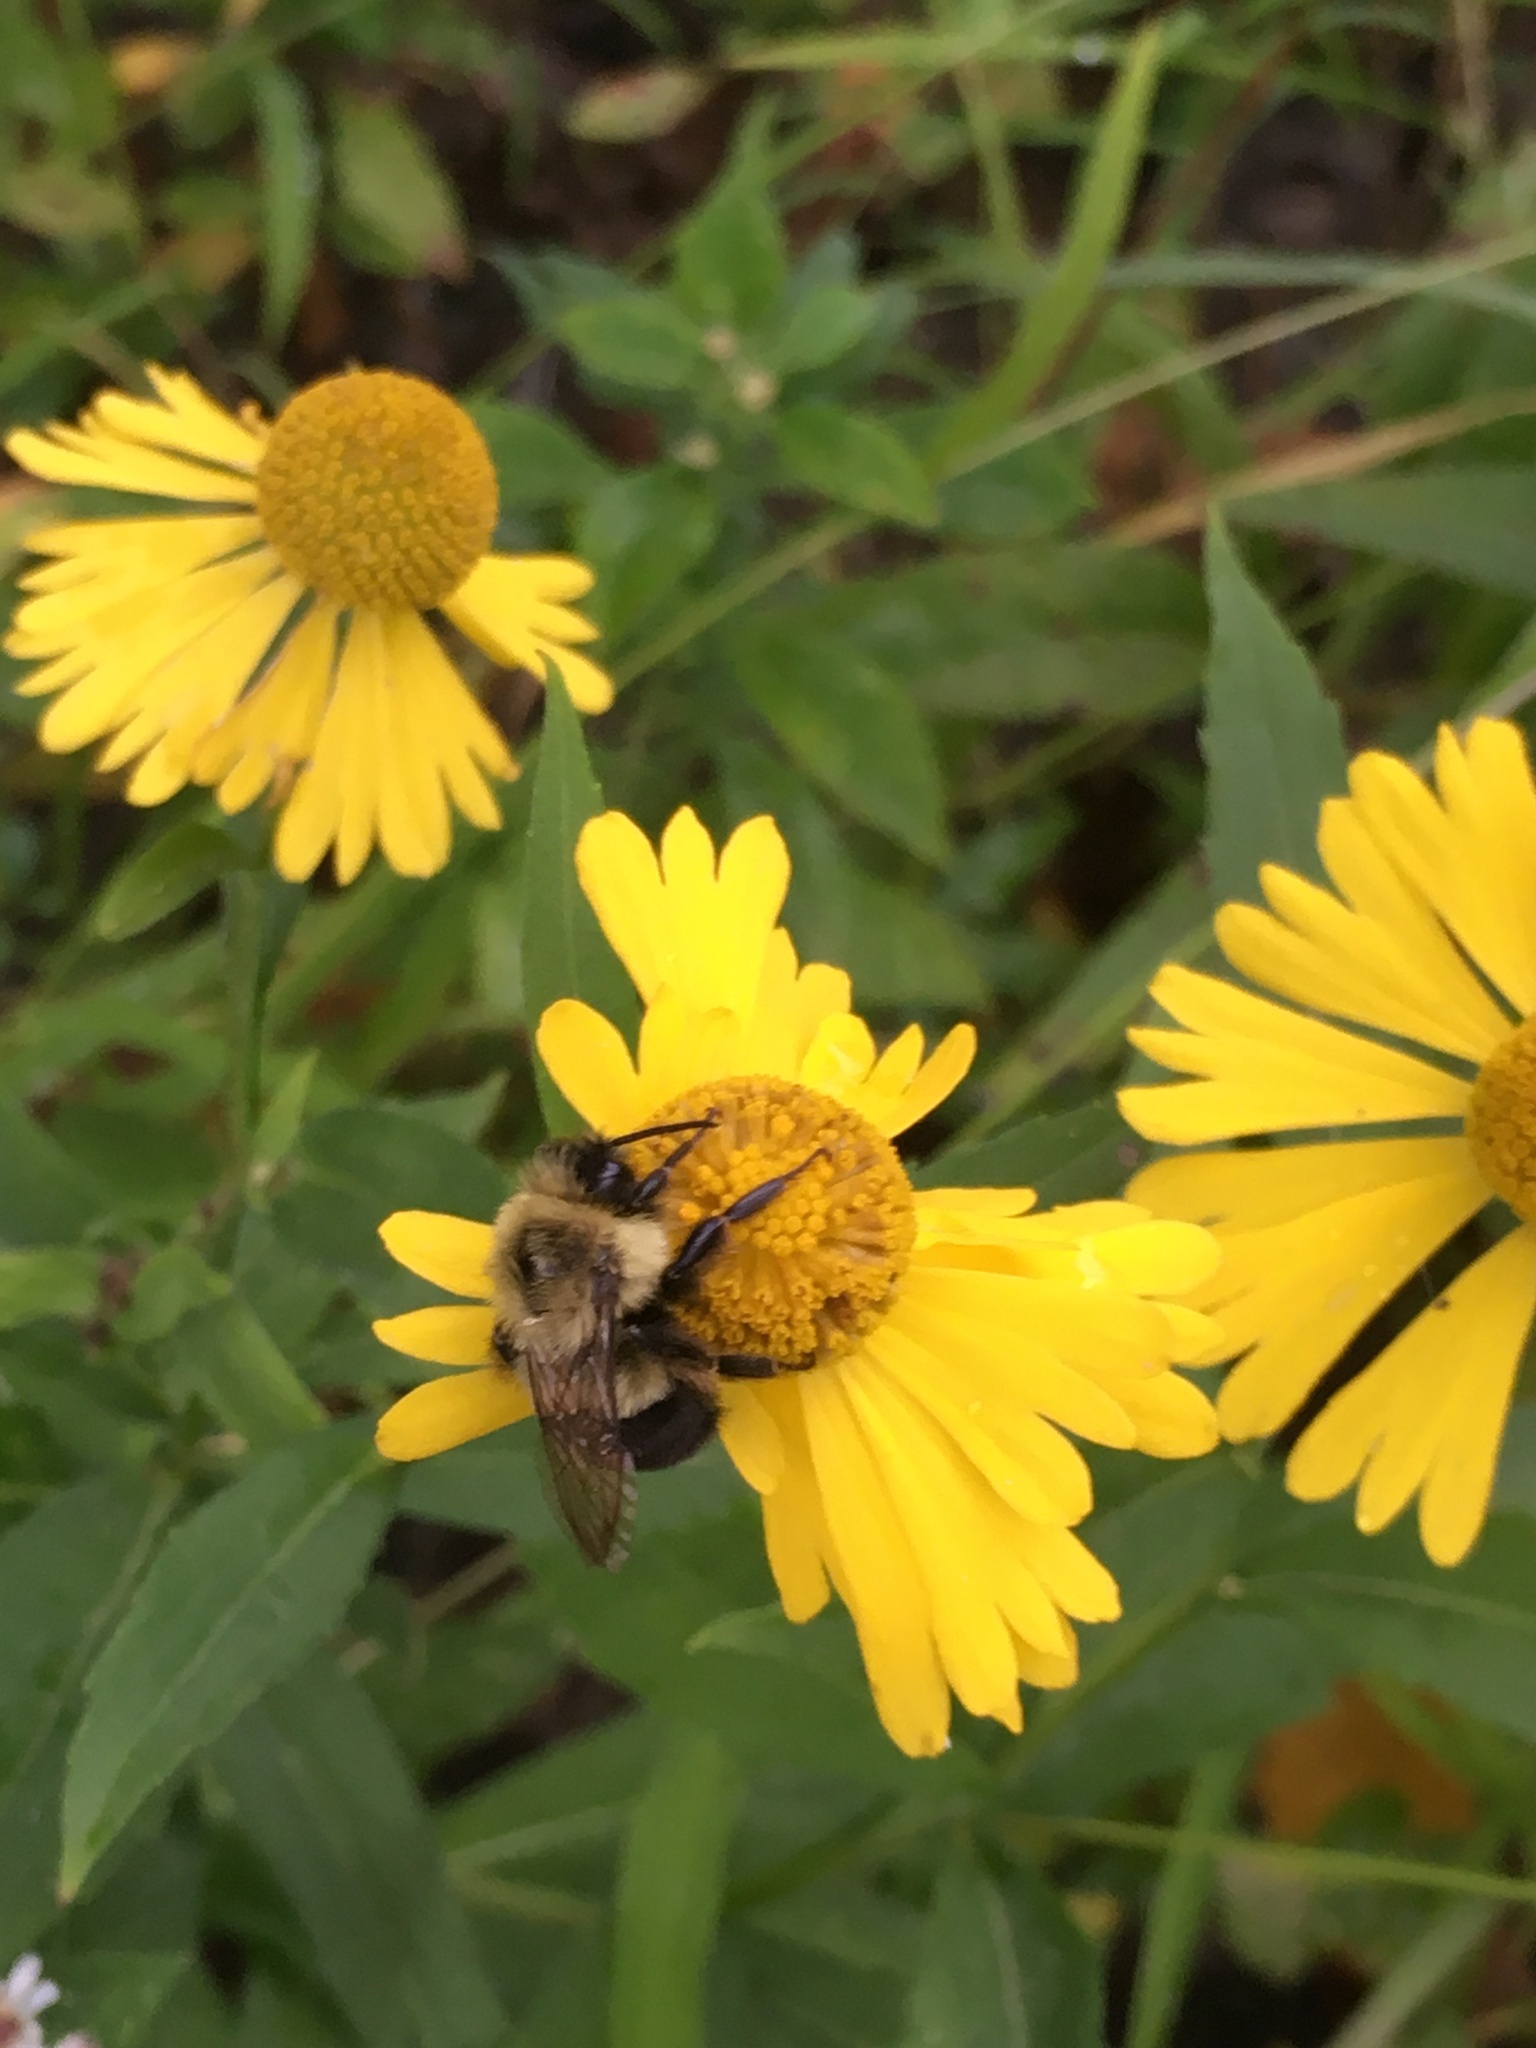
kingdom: Animalia
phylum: Arthropoda
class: Insecta
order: Hymenoptera
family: Apidae
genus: Bombus
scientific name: Bombus impatiens
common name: Common eastern bumble bee
